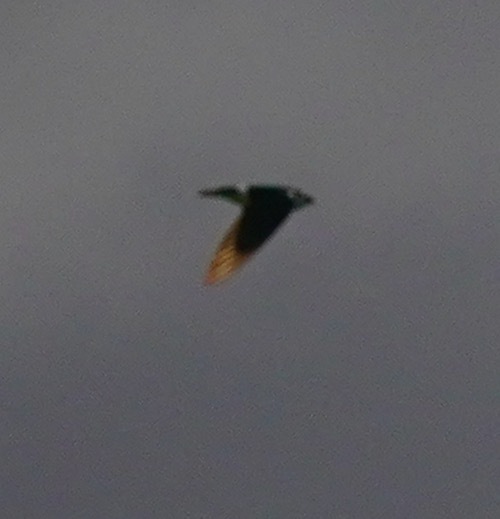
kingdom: Animalia
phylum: Chordata
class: Aves
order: Passeriformes
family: Hirundinidae
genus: Tachycineta
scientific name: Tachycineta thalassina
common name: Violet-green swallow
